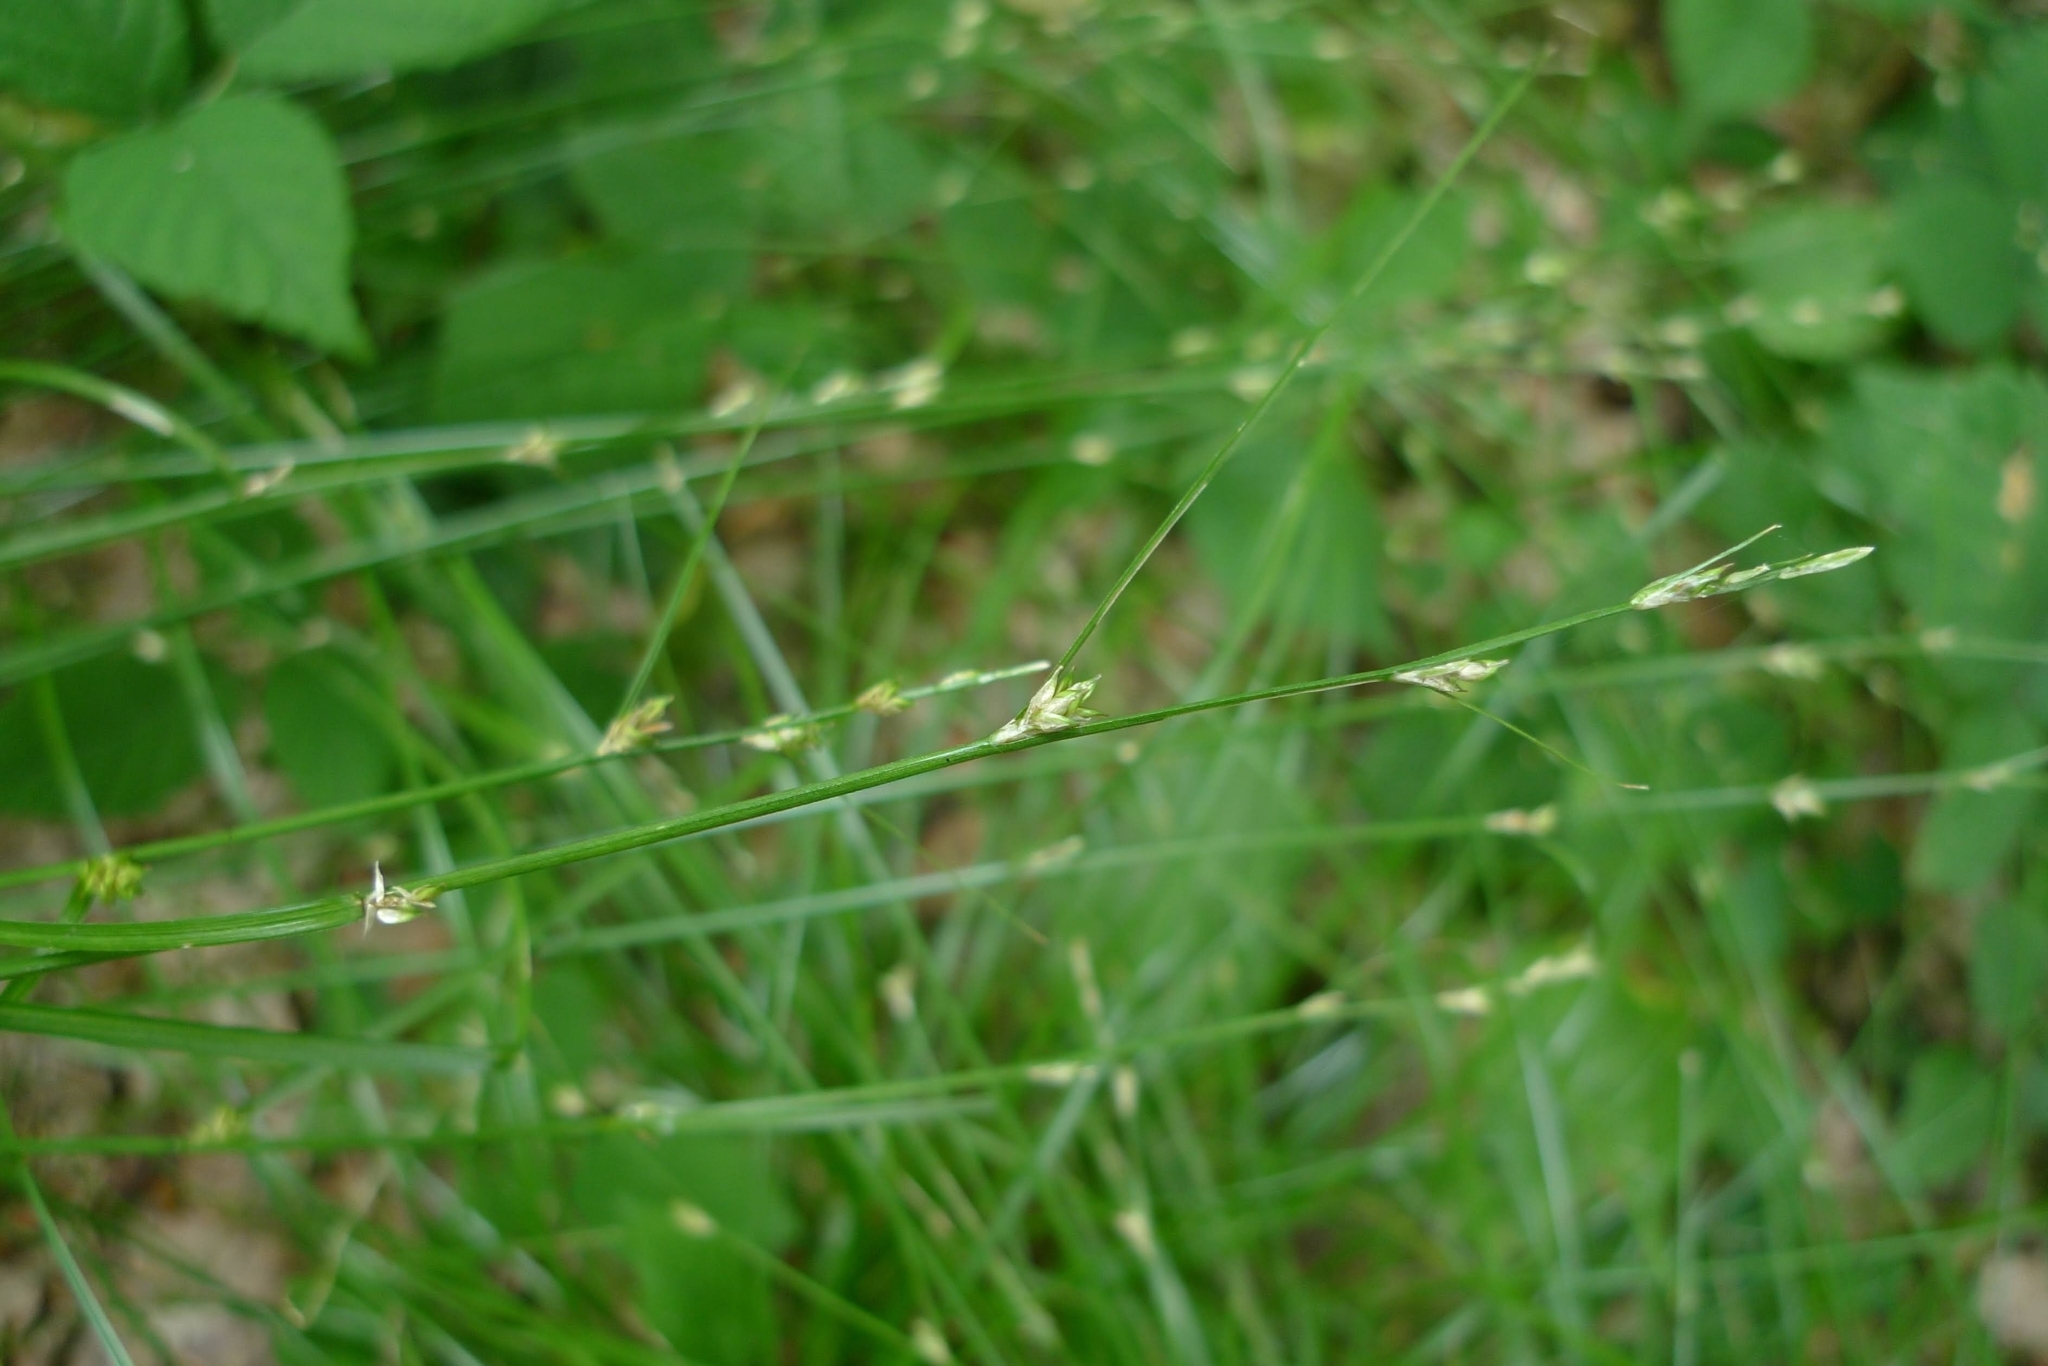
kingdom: Plantae
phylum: Tracheophyta
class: Liliopsida
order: Poales
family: Cyperaceae
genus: Carex
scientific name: Carex remota
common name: Remote sedge
